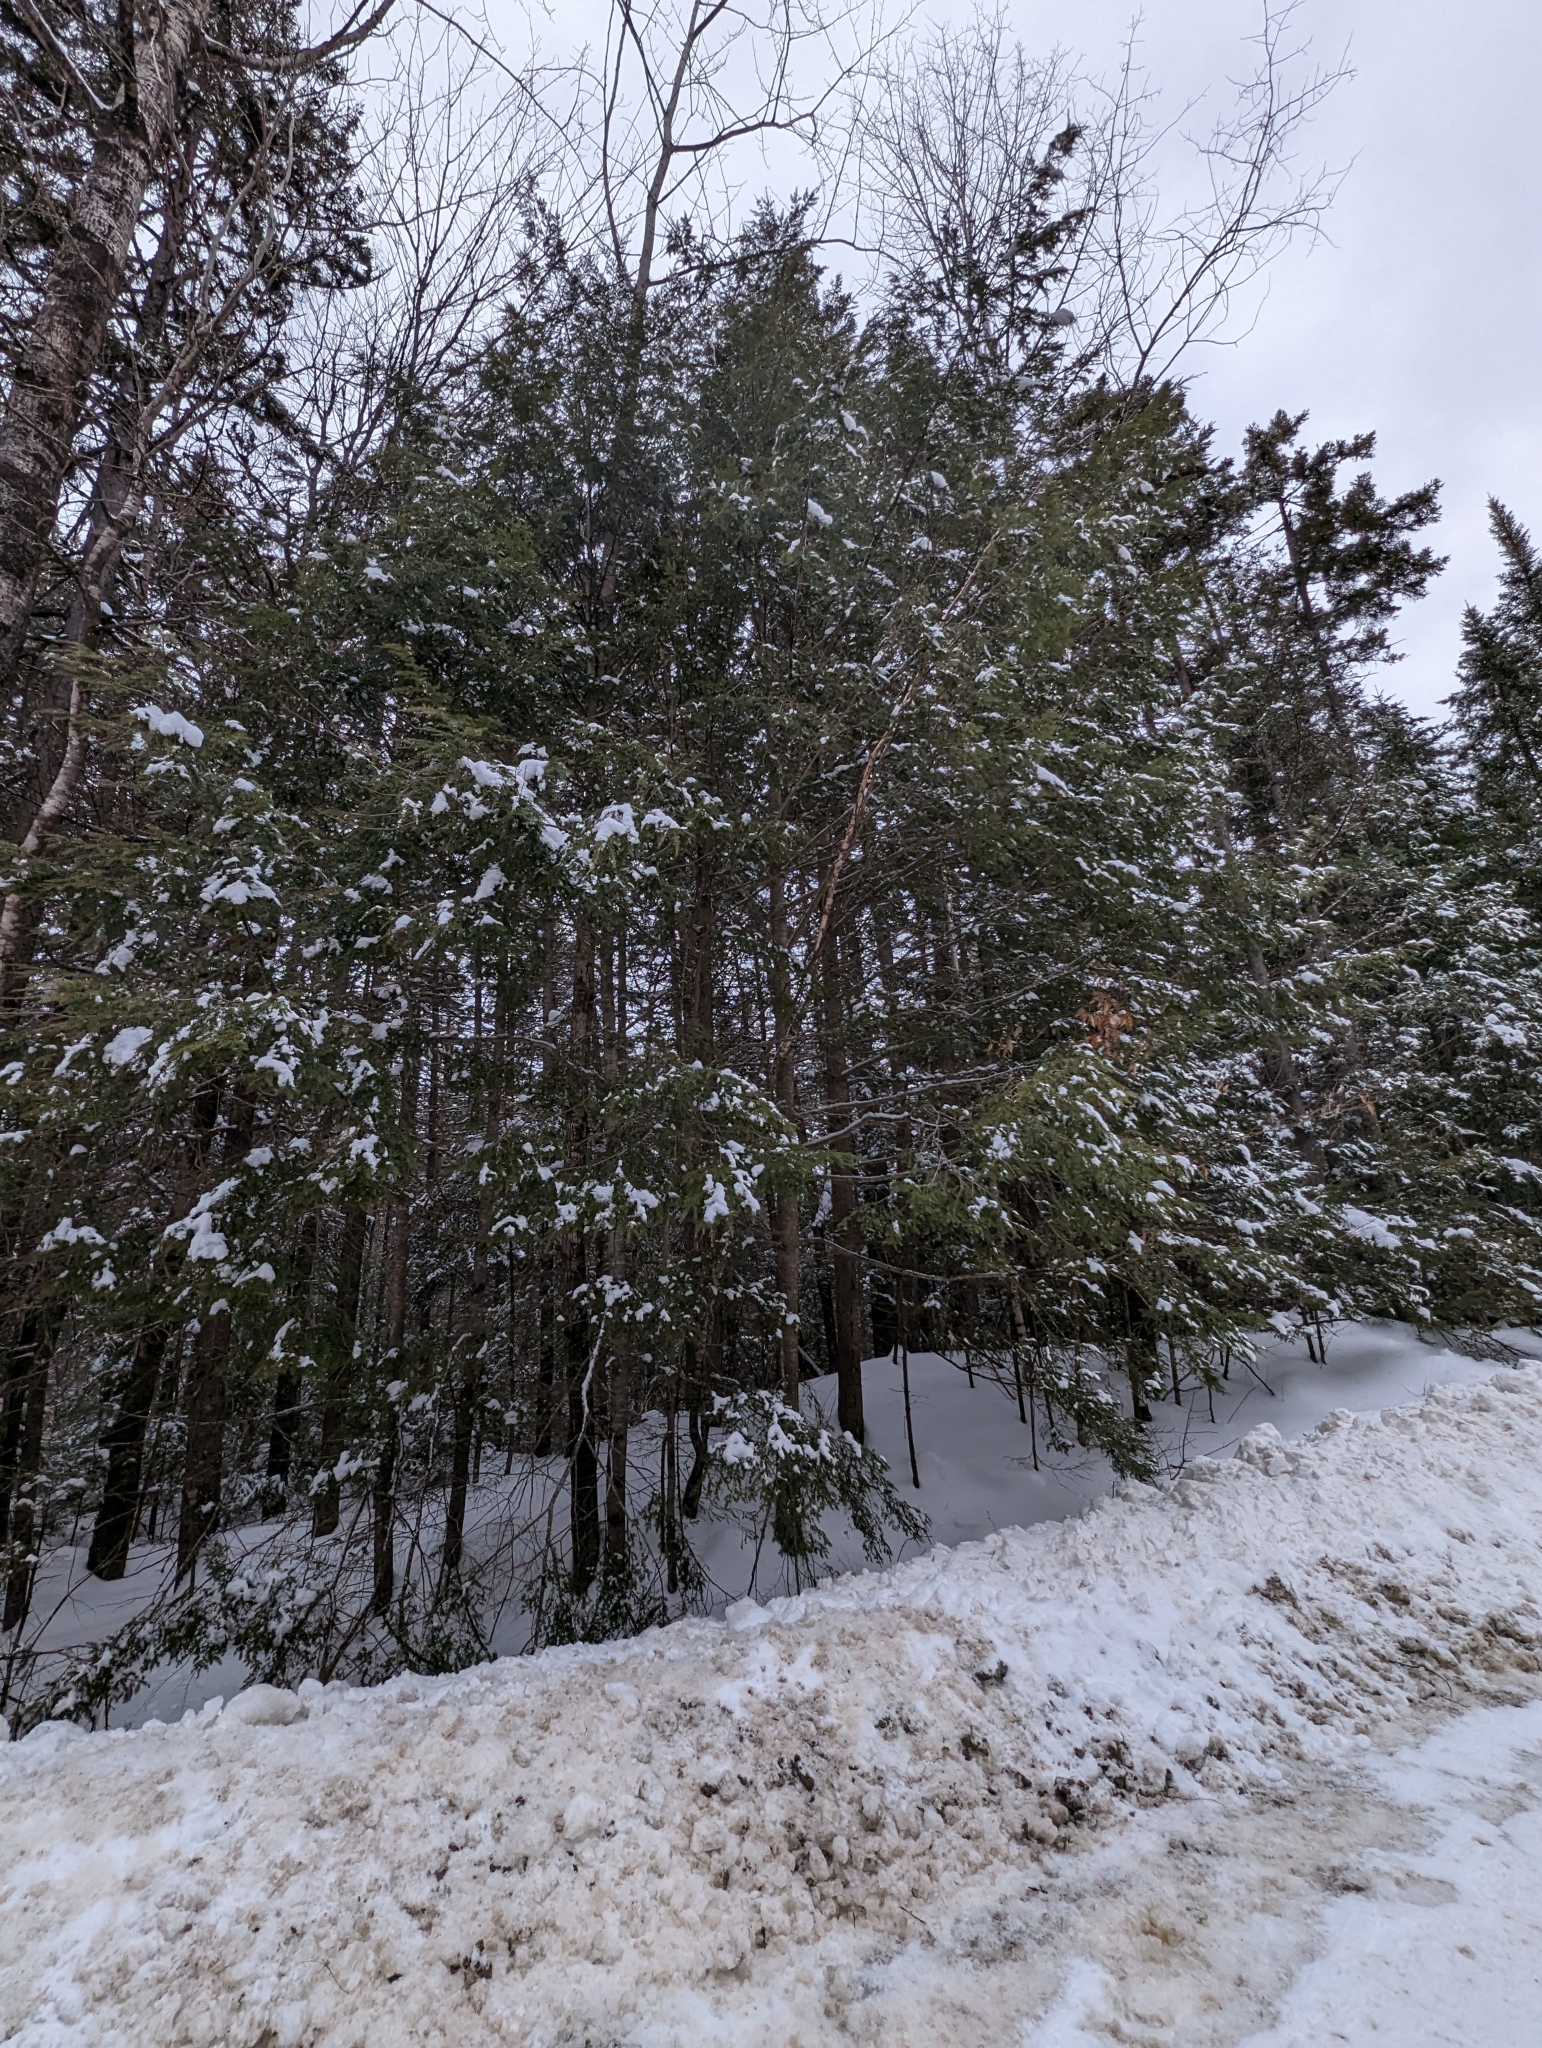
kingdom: Plantae
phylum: Tracheophyta
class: Pinopsida
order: Pinales
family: Pinaceae
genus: Tsuga
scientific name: Tsuga canadensis
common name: Eastern hemlock
